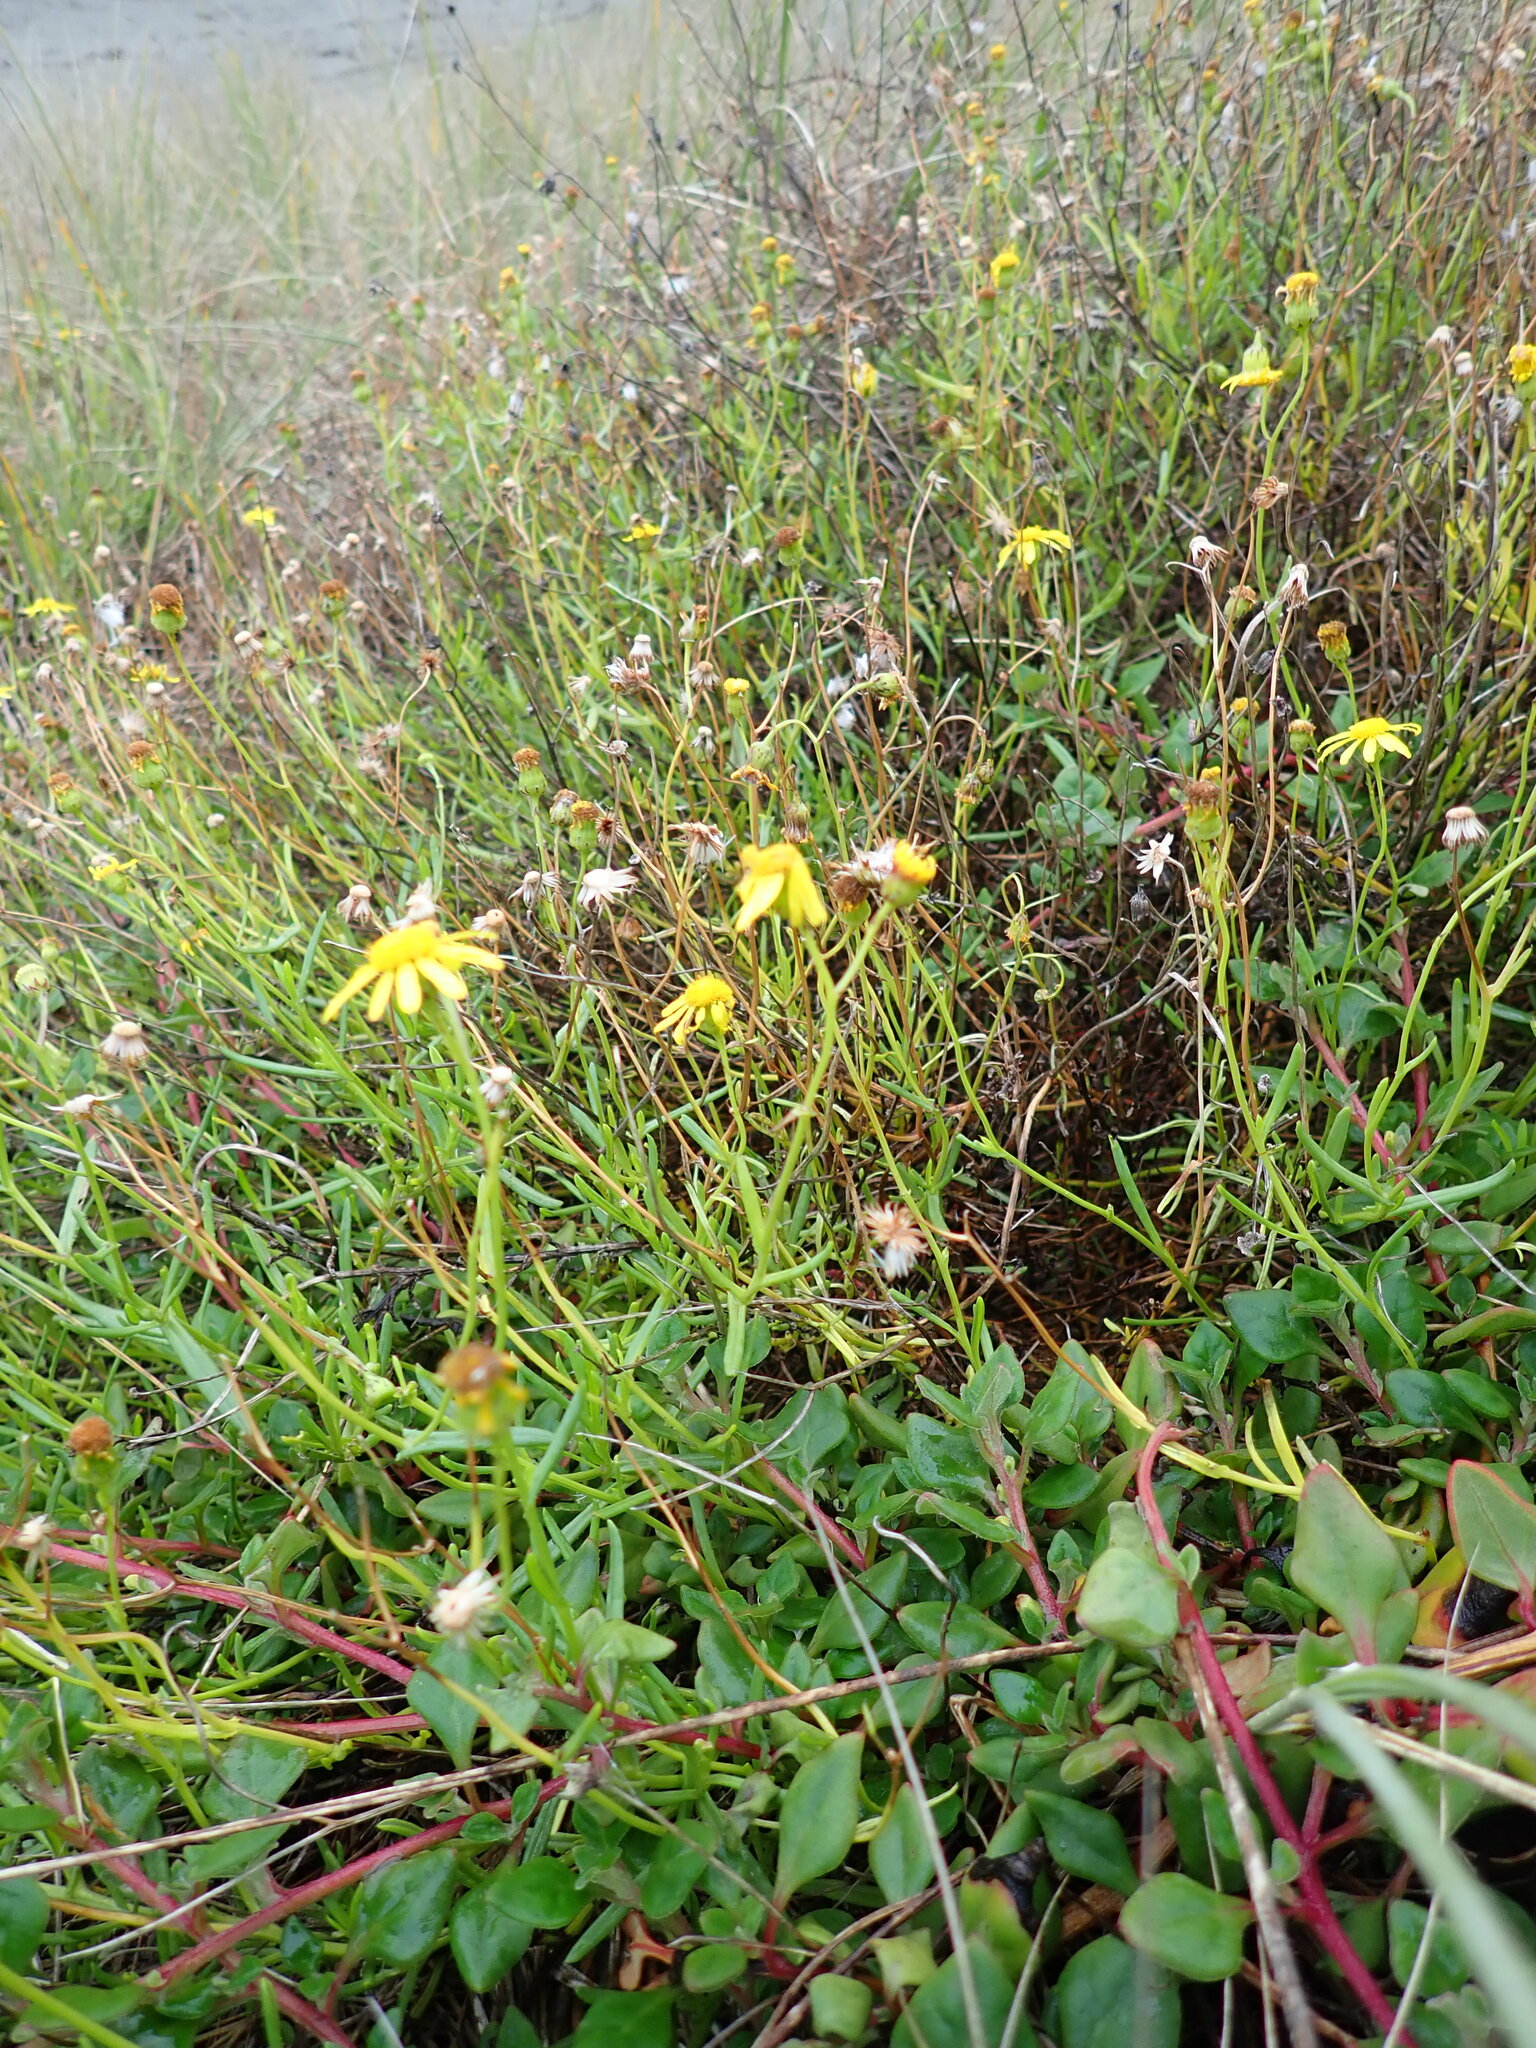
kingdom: Plantae
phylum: Tracheophyta
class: Magnoliopsida
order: Asterales
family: Asteraceae
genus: Senecio
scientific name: Senecio skirrhodon
